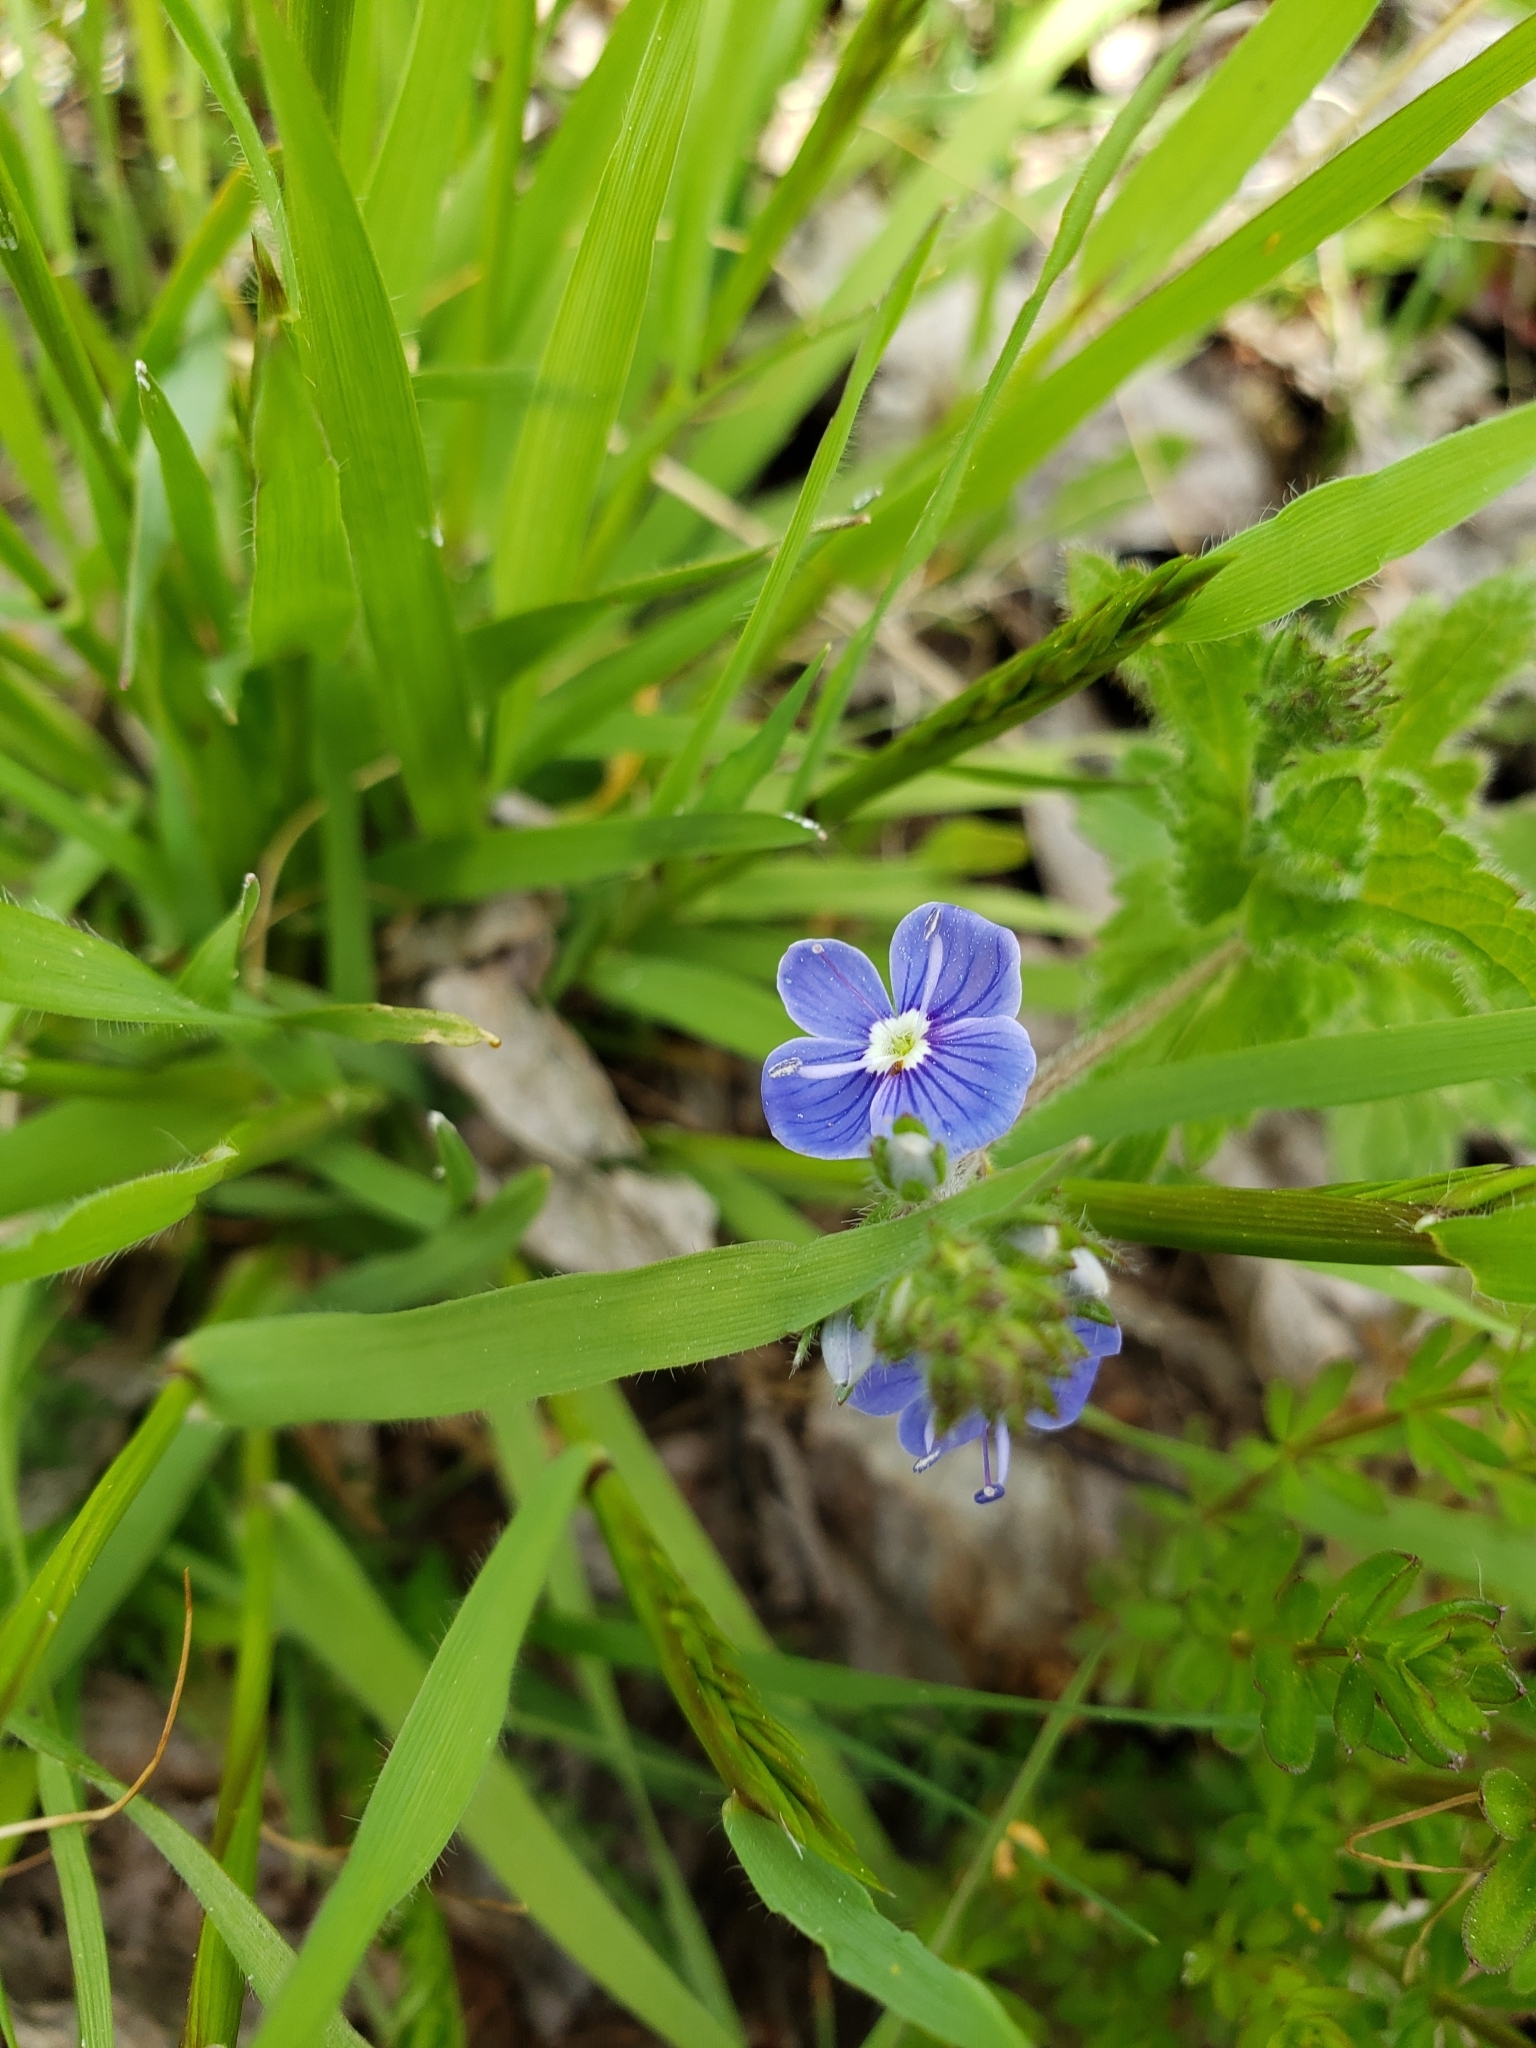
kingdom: Plantae
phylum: Tracheophyta
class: Magnoliopsida
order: Lamiales
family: Plantaginaceae
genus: Veronica
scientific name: Veronica chamaedrys
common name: Germander speedwell
